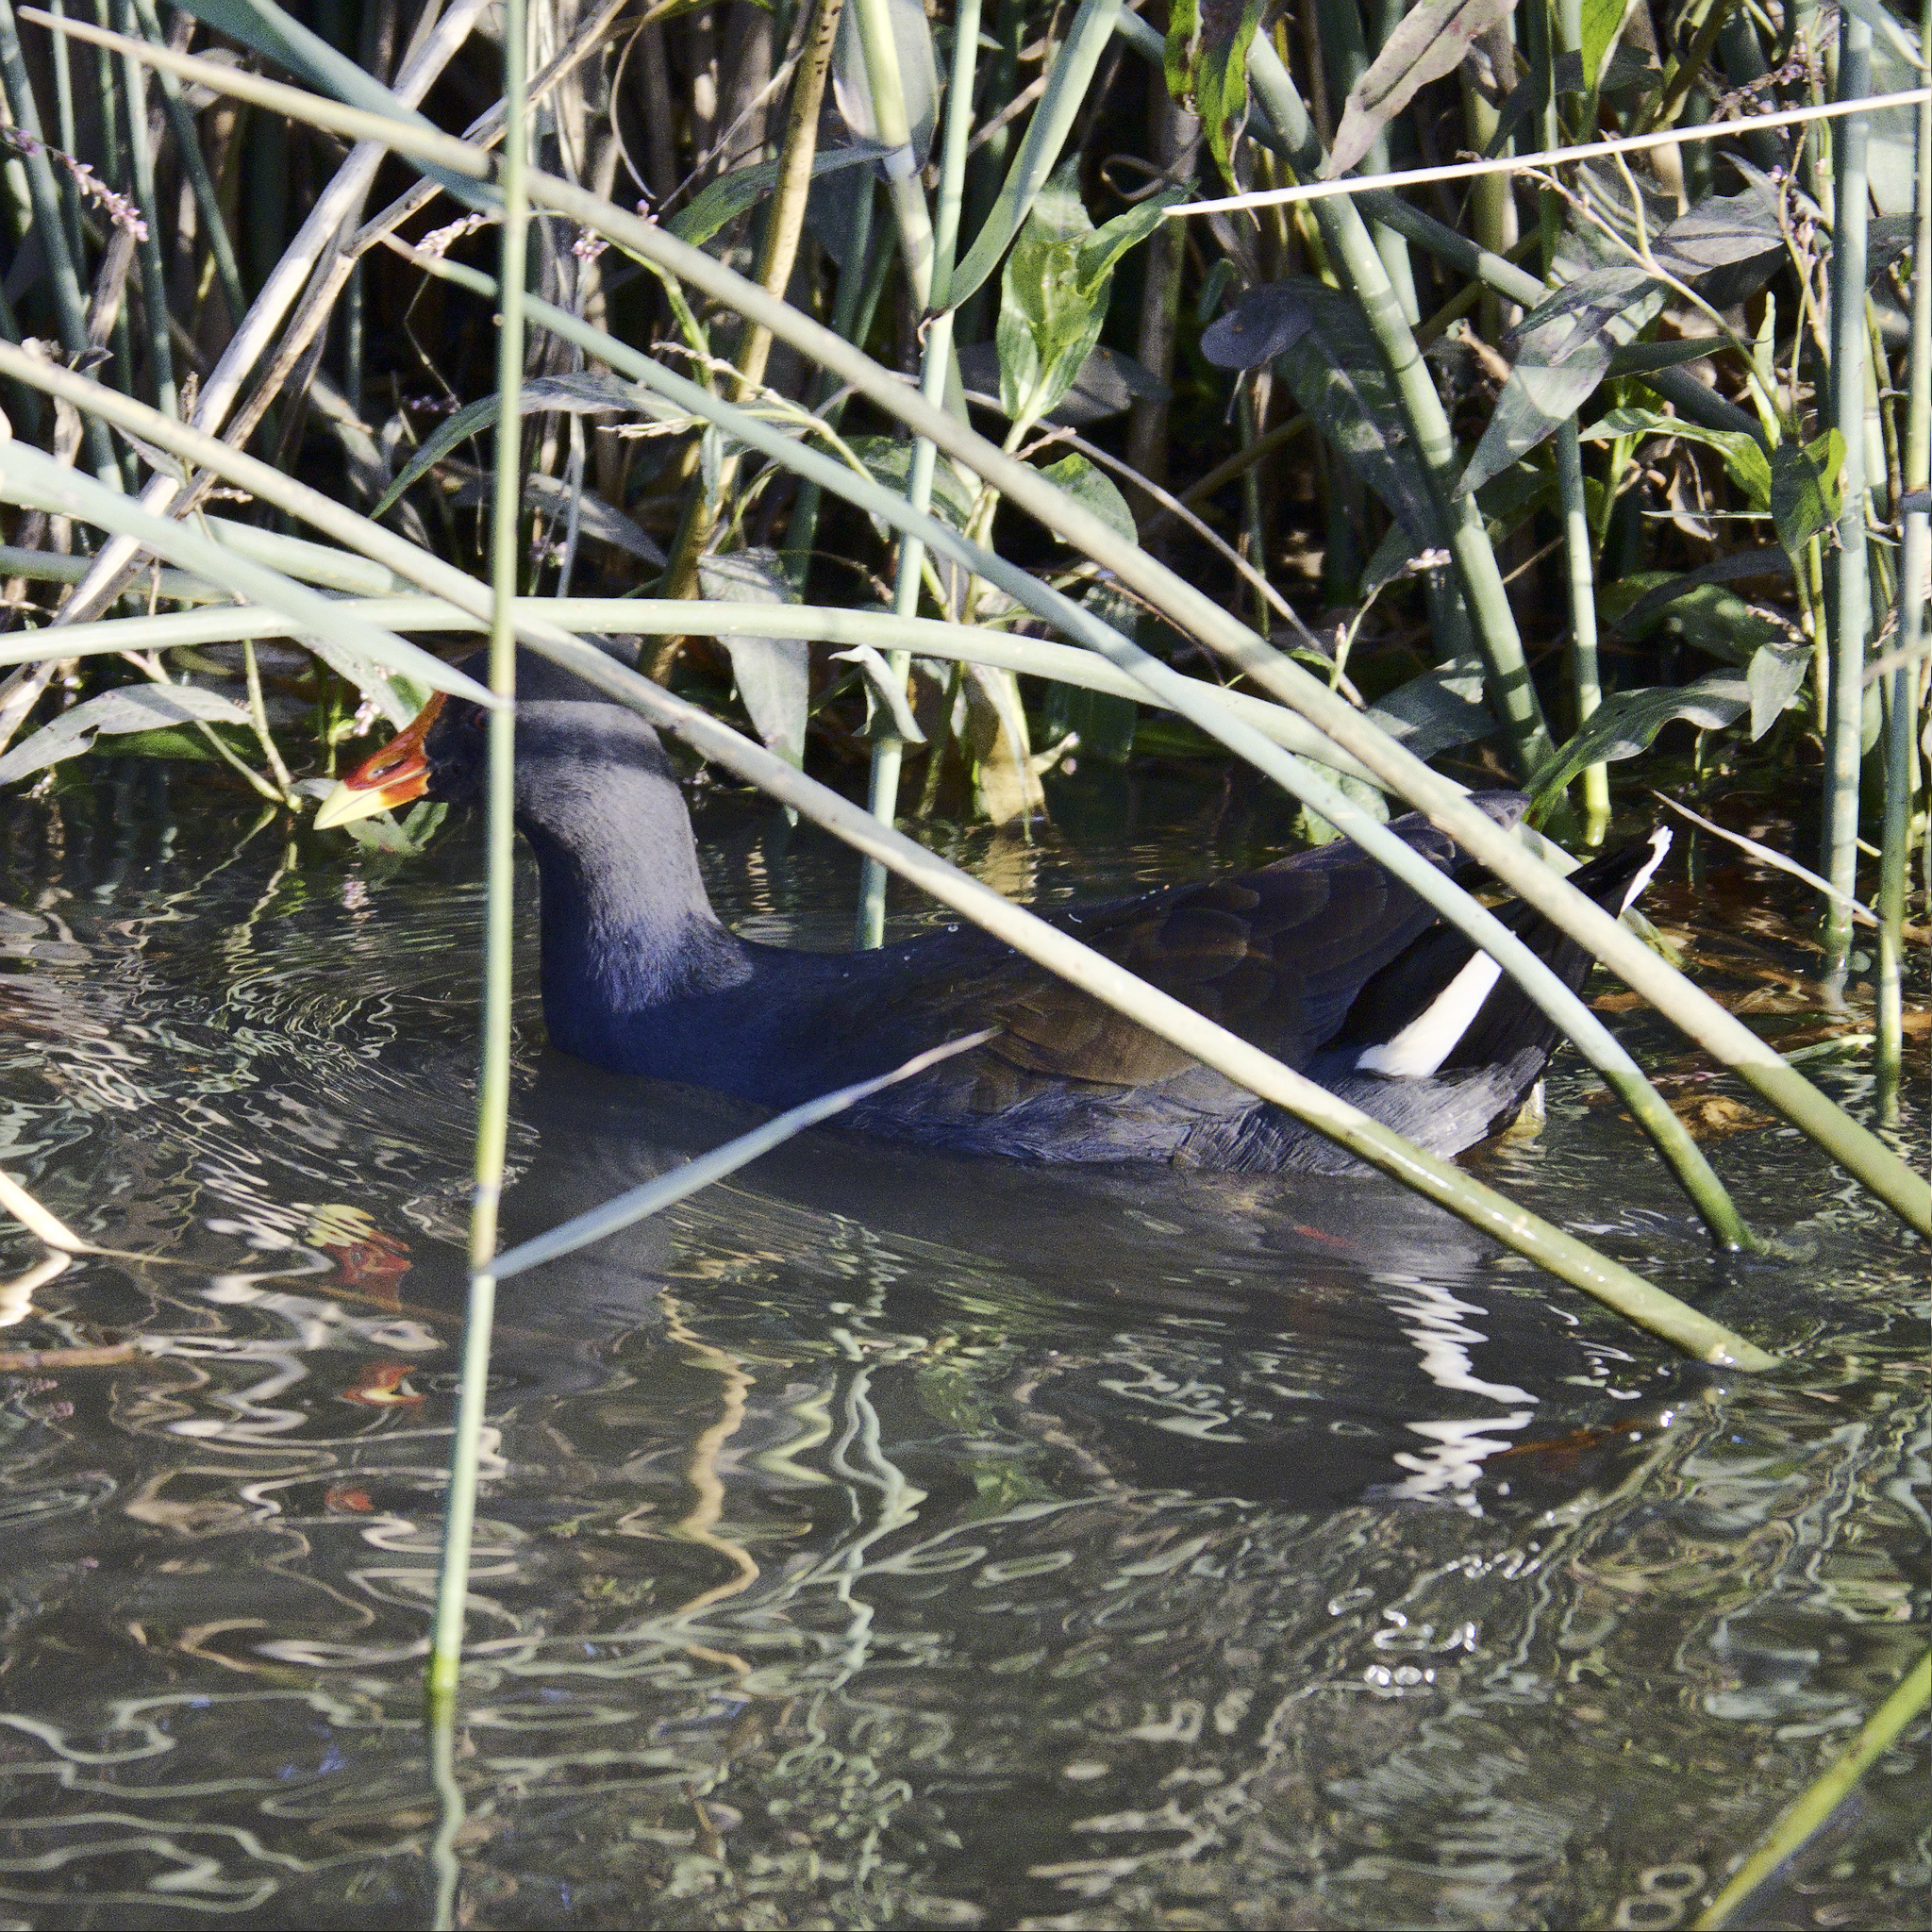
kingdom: Animalia
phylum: Chordata
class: Aves
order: Gruiformes
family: Rallidae
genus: Gallinula
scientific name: Gallinula tenebrosa
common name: Dusky moorhen
